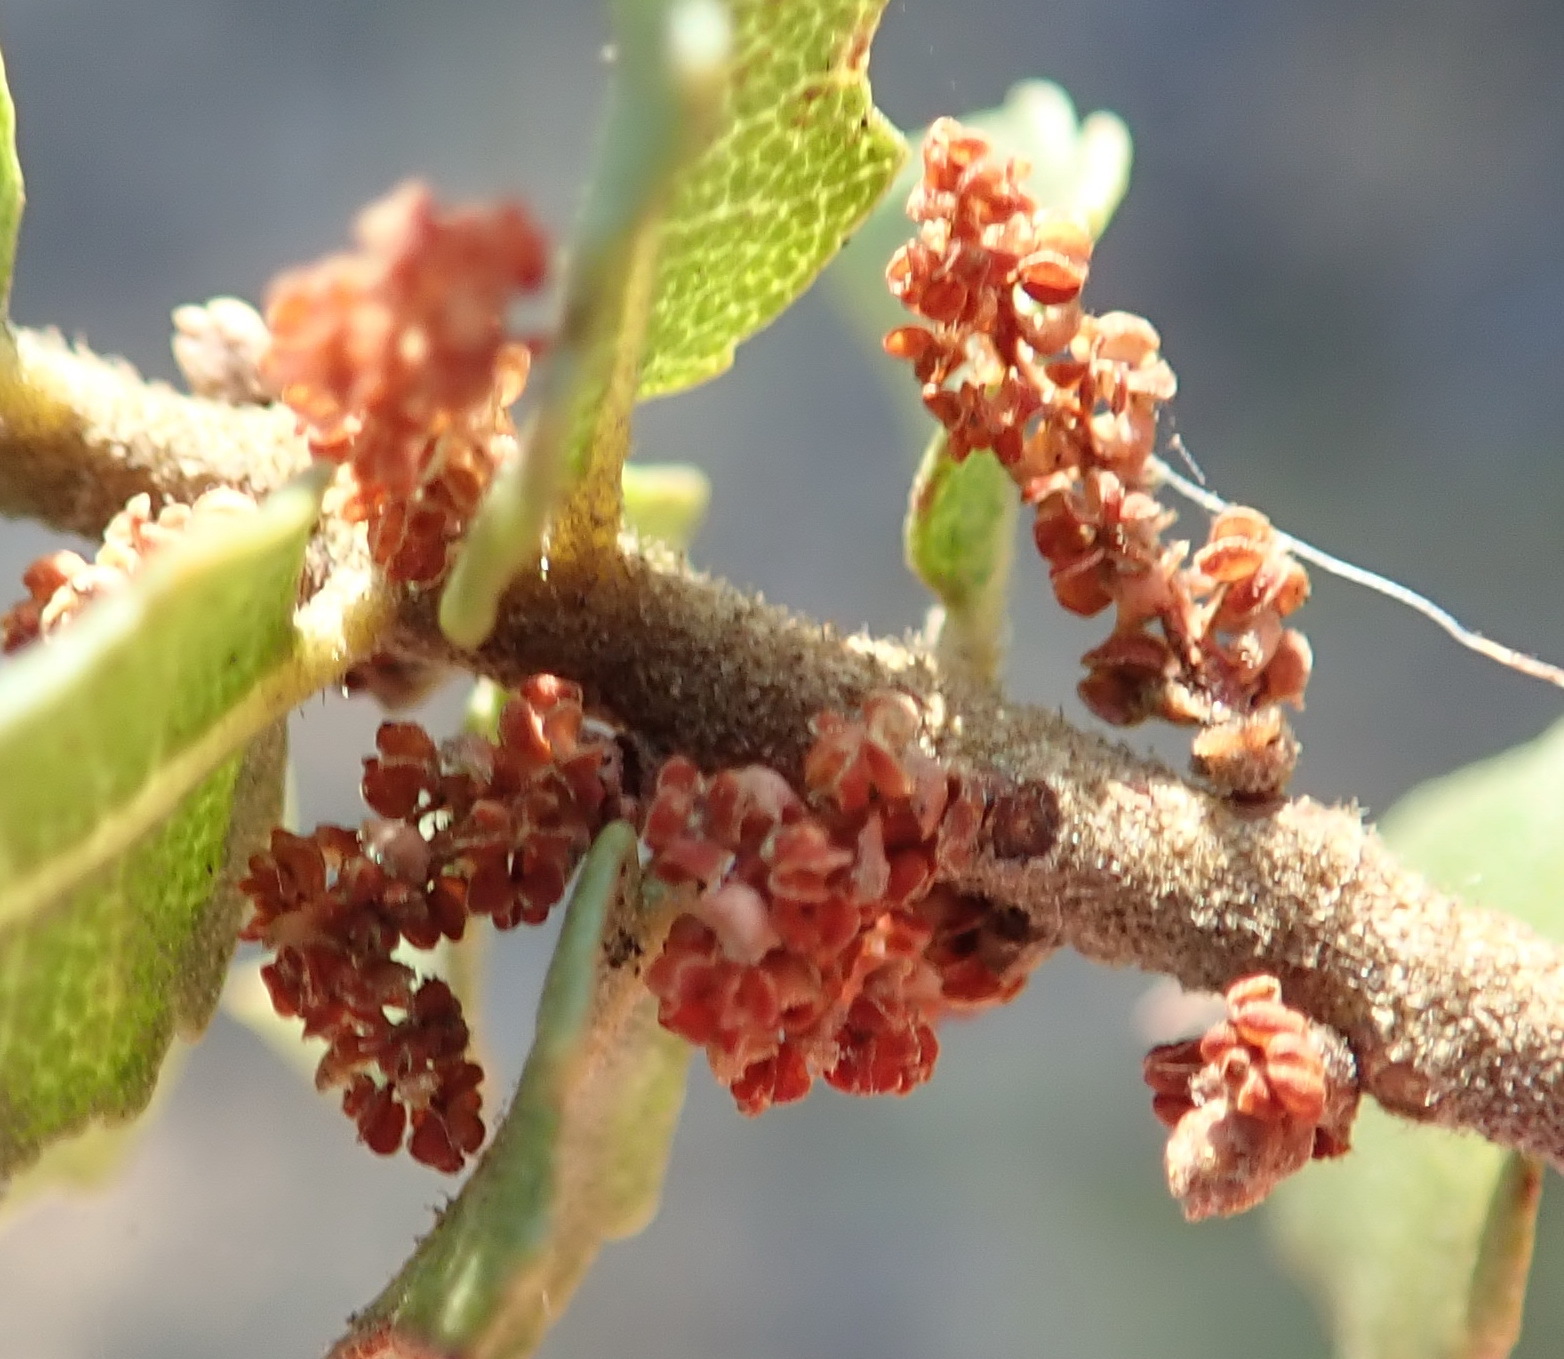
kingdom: Plantae
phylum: Tracheophyta
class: Magnoliopsida
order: Fagales
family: Myricaceae
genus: Morella
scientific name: Morella cordifolia
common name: Waxberry
